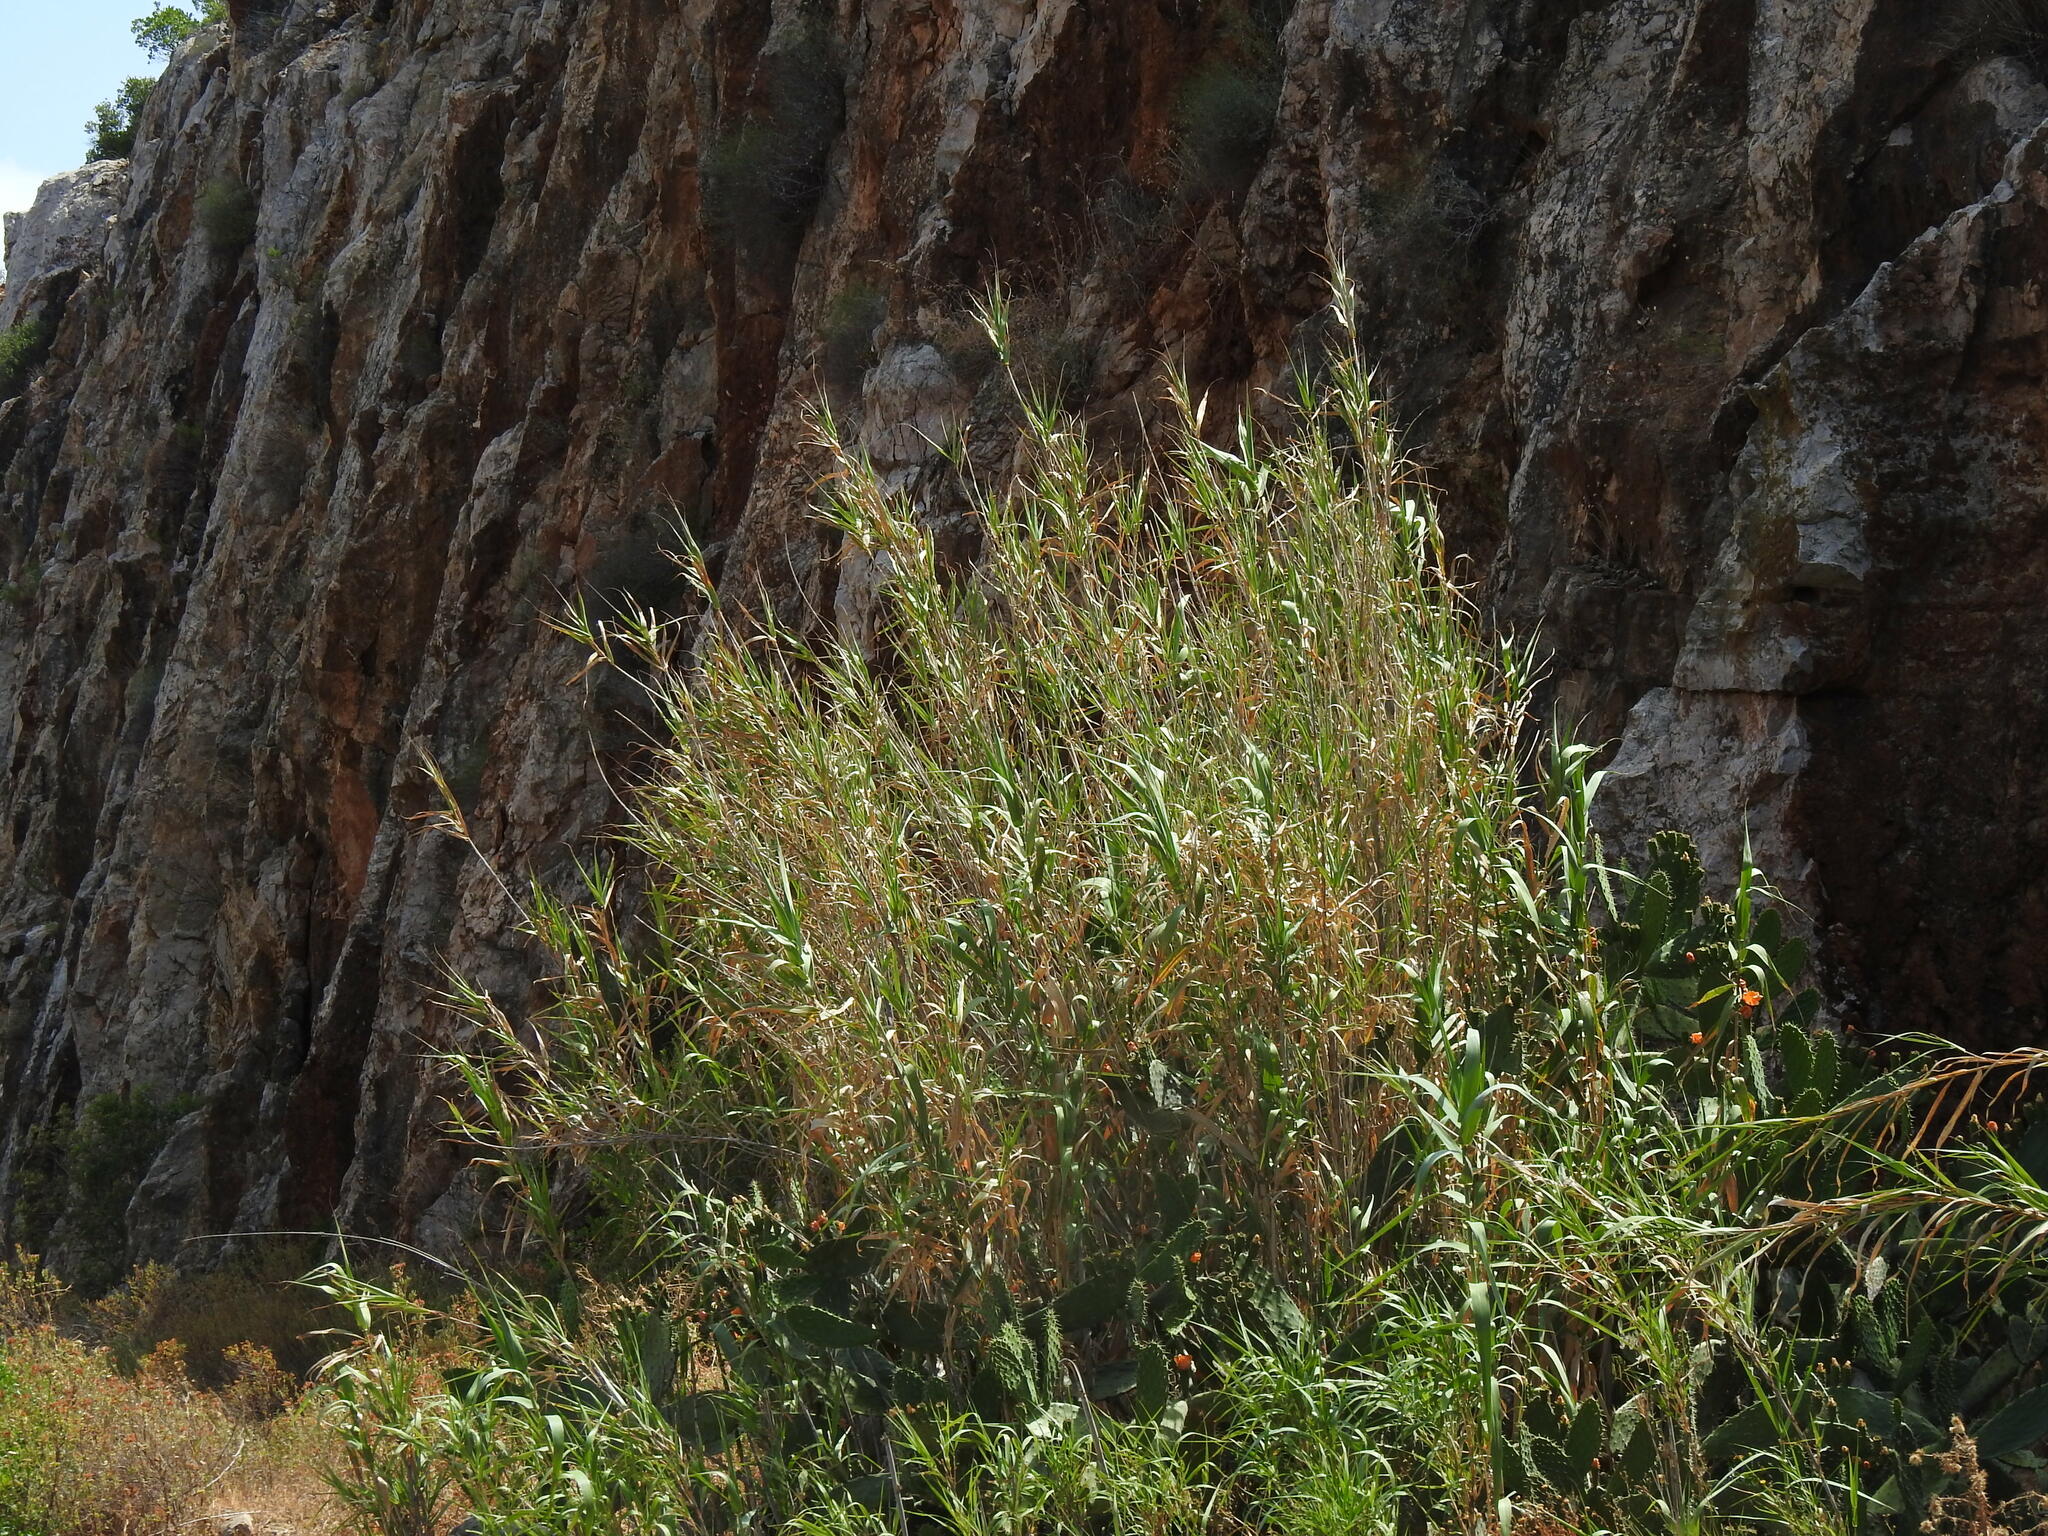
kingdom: Plantae
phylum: Tracheophyta
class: Liliopsida
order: Poales
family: Poaceae
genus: Arundo
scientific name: Arundo donax
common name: Giant reed
